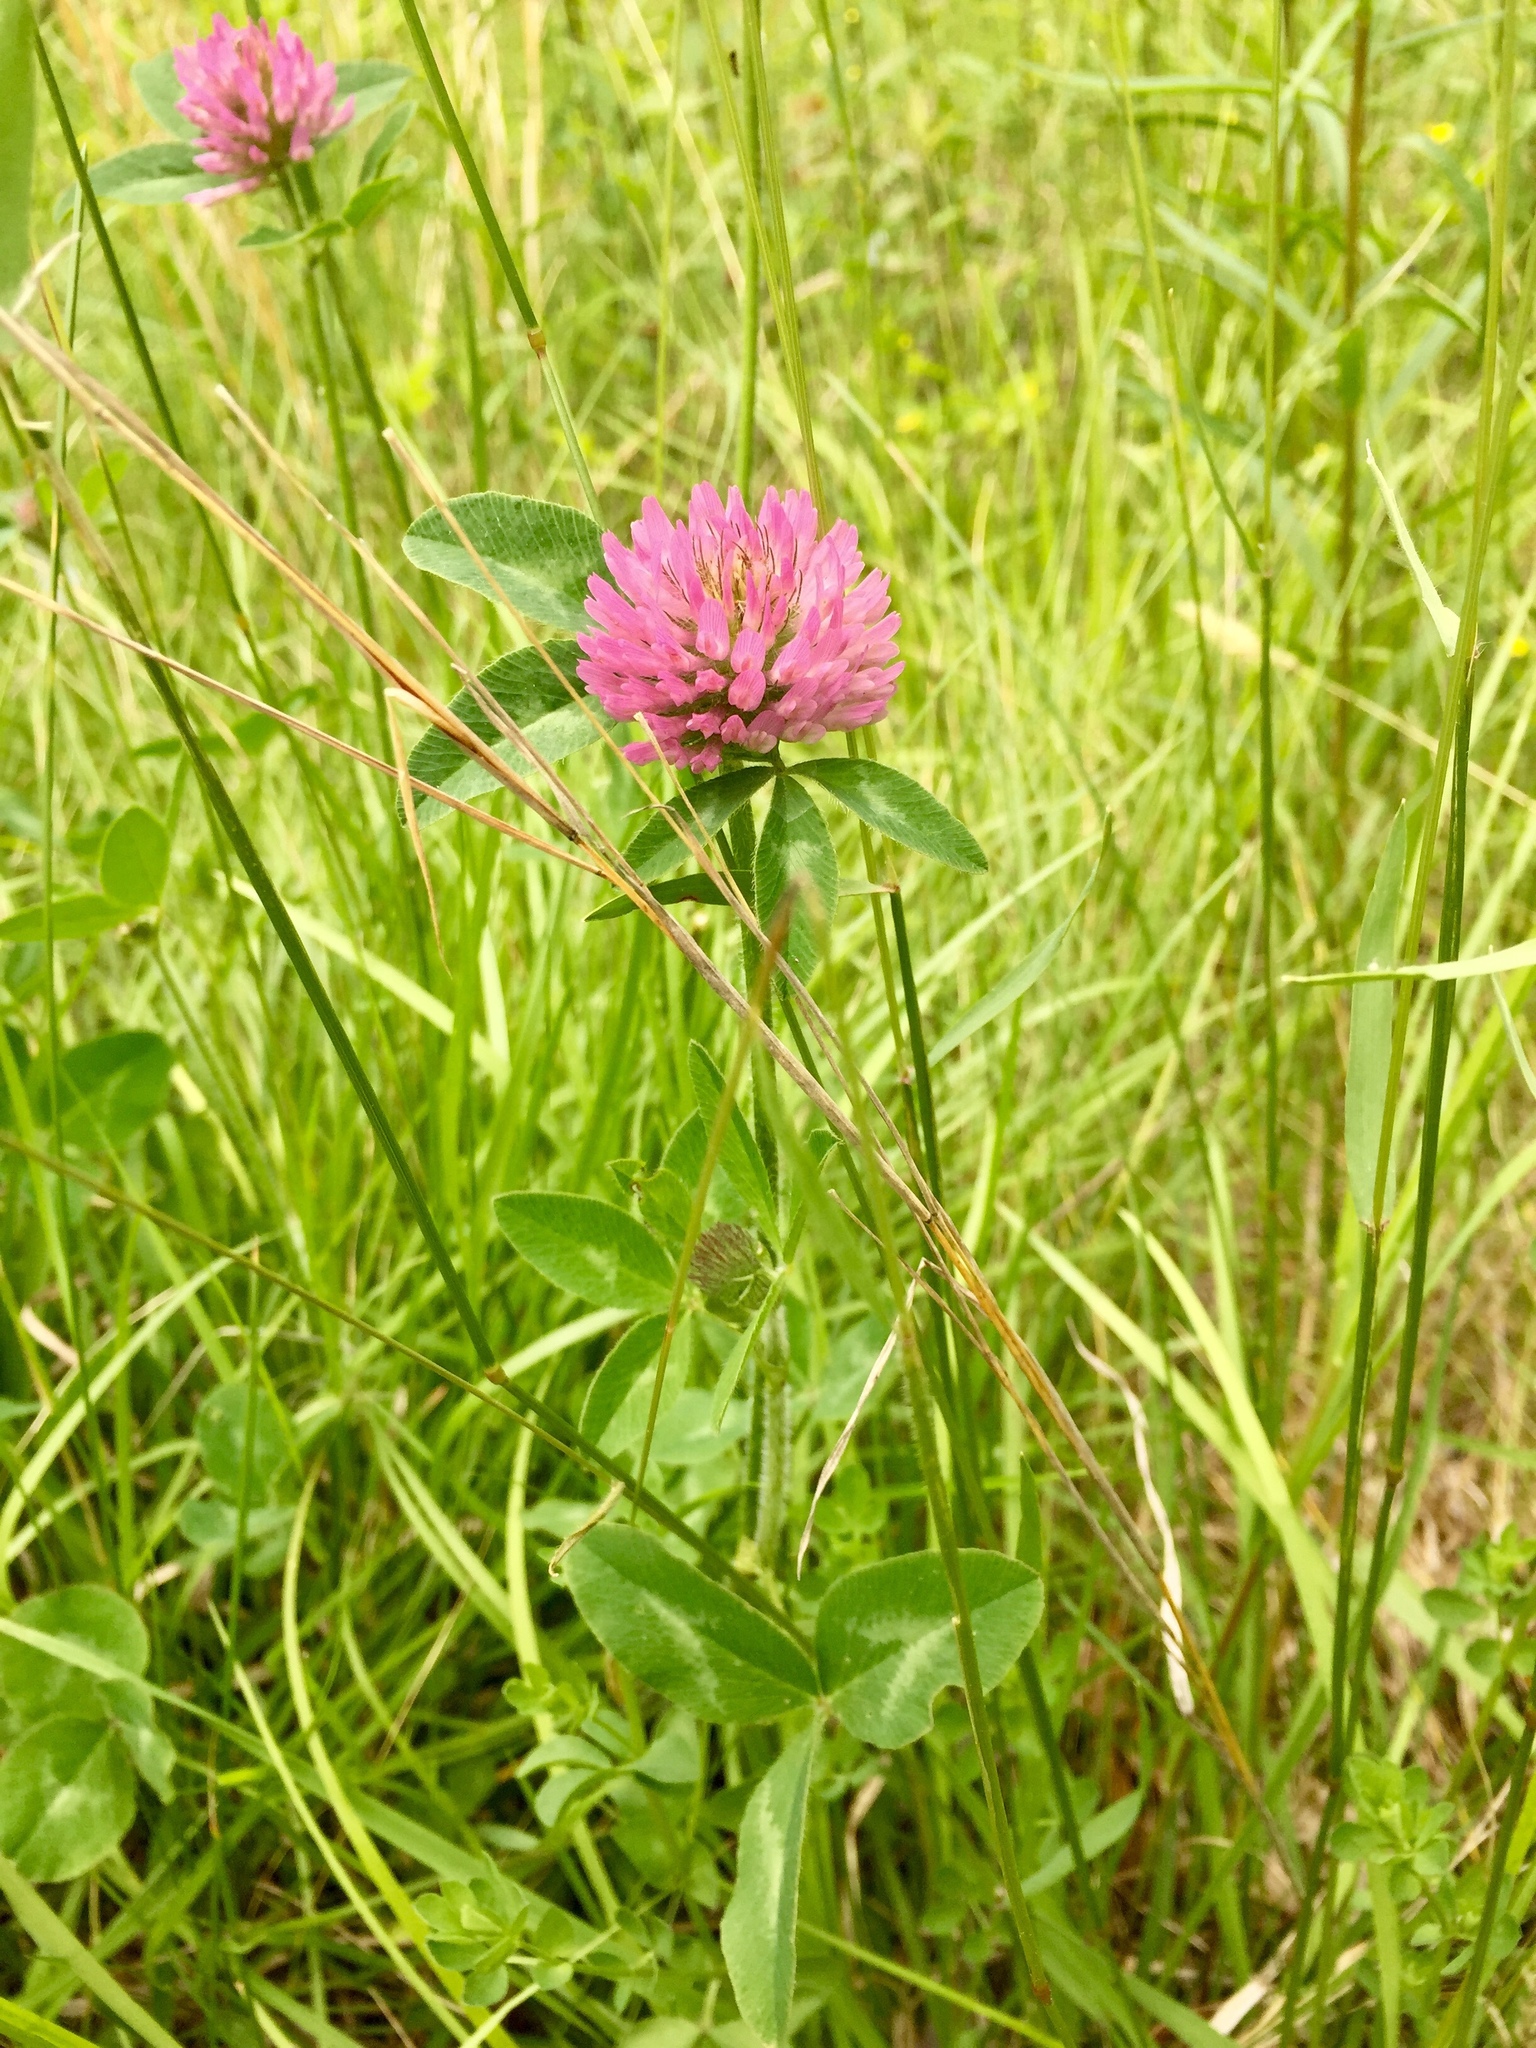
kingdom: Plantae
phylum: Tracheophyta
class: Magnoliopsida
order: Fabales
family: Fabaceae
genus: Trifolium
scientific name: Trifolium pratense
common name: Red clover
